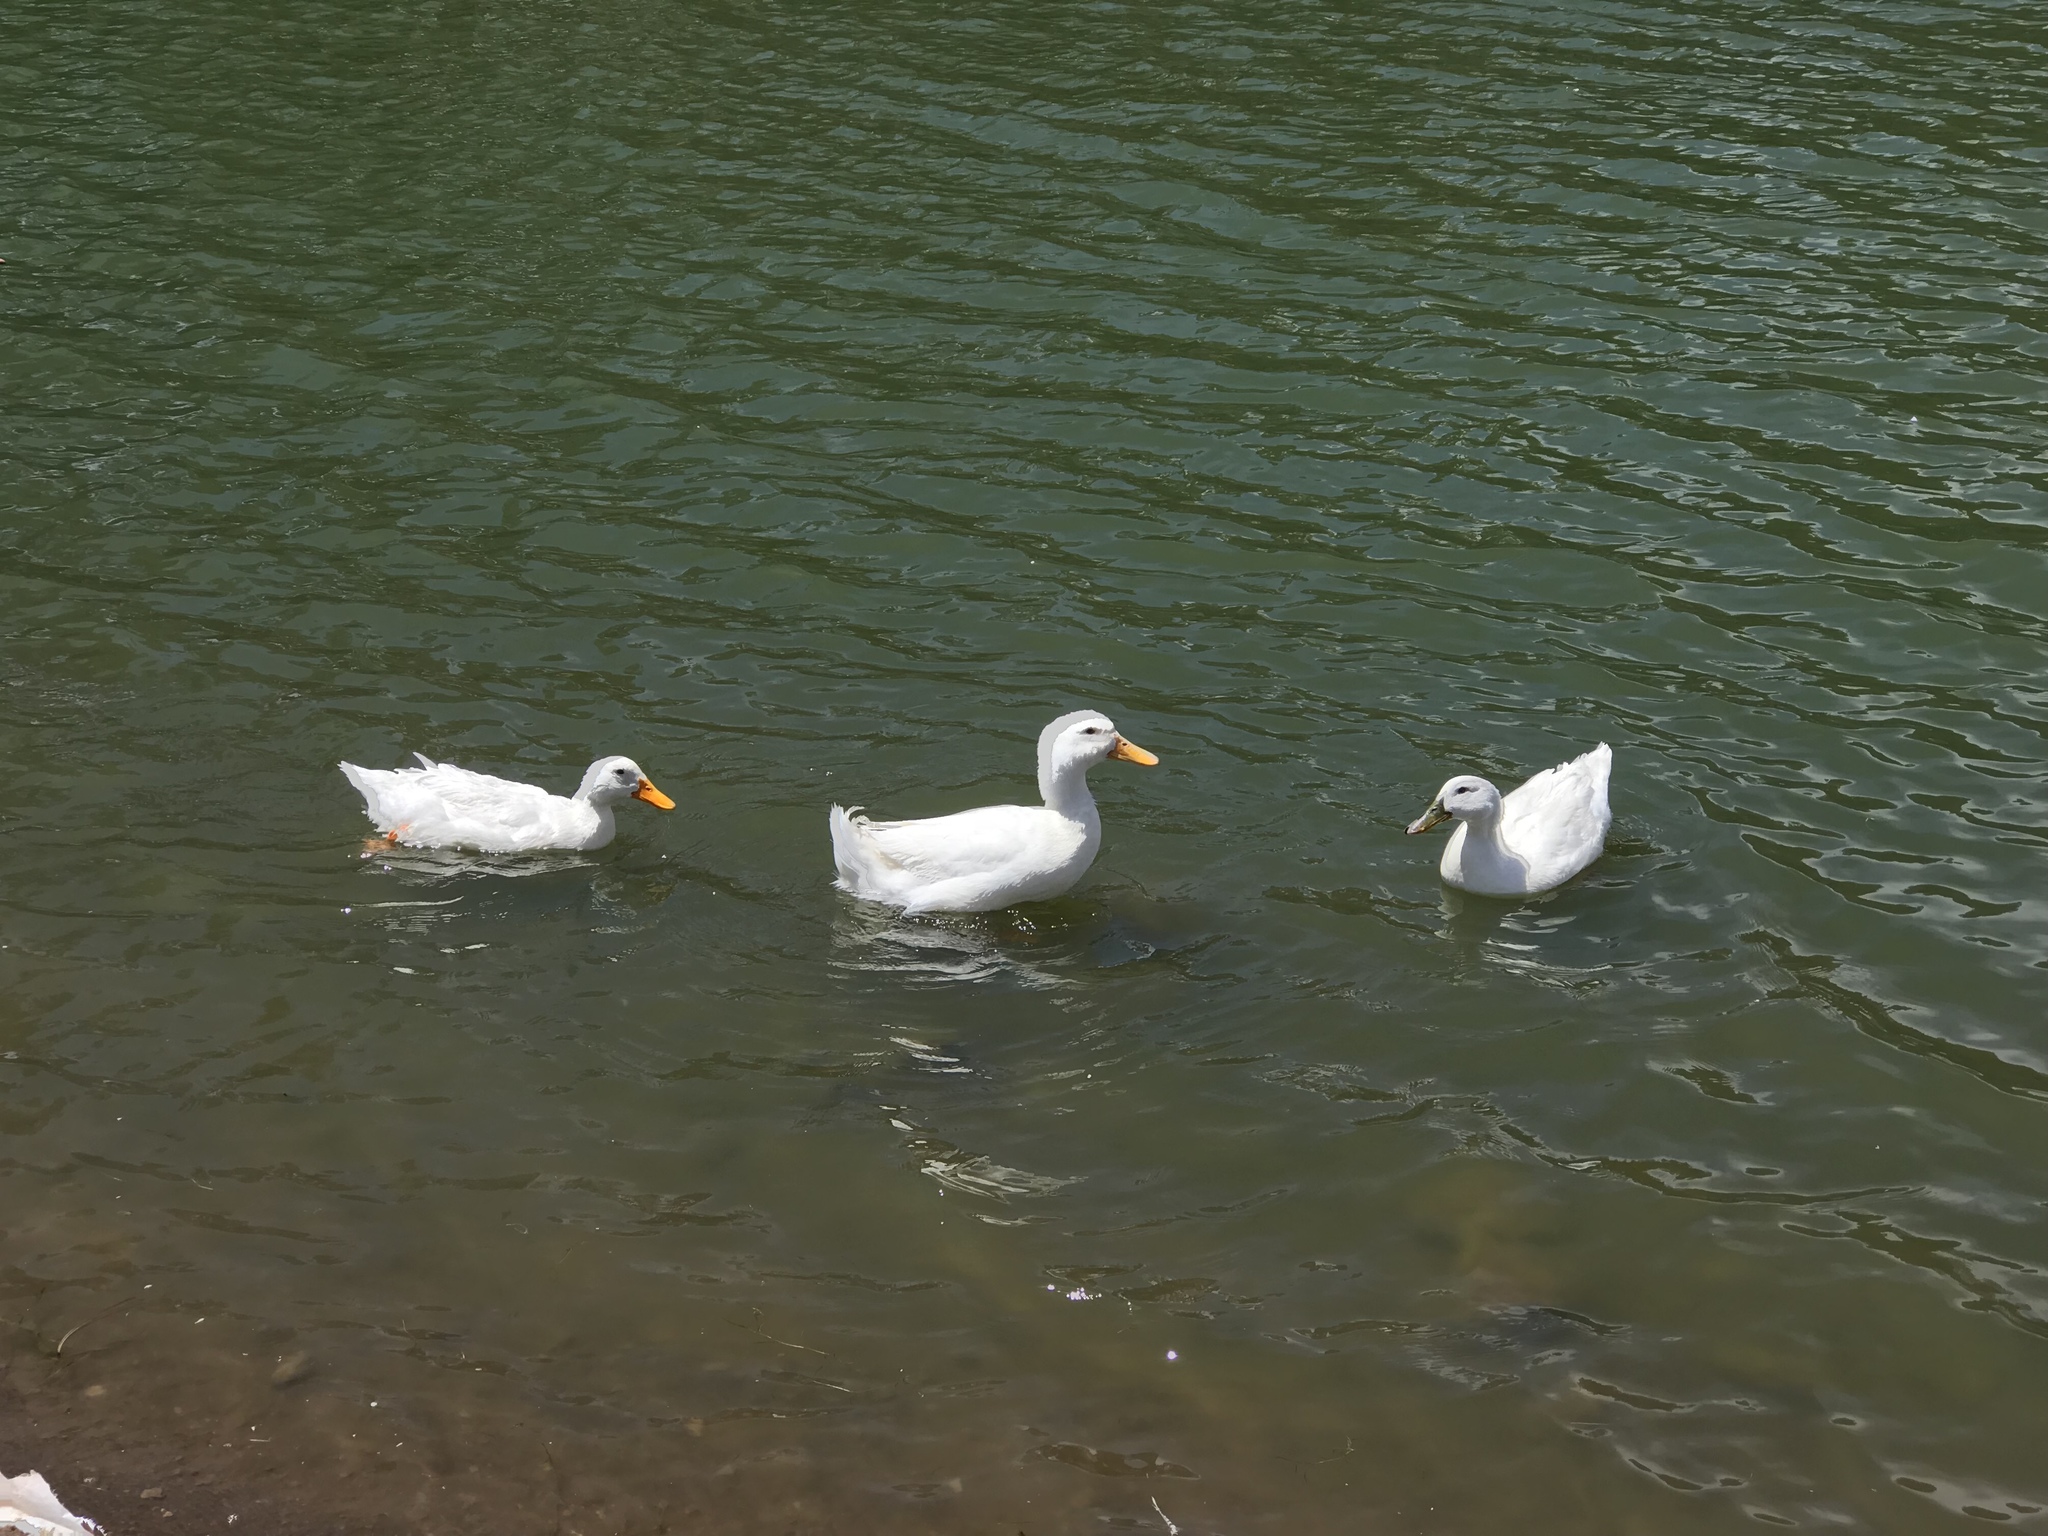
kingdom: Animalia
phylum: Chordata
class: Aves
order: Anseriformes
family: Anatidae
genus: Anas
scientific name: Anas platyrhynchos
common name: Mallard
